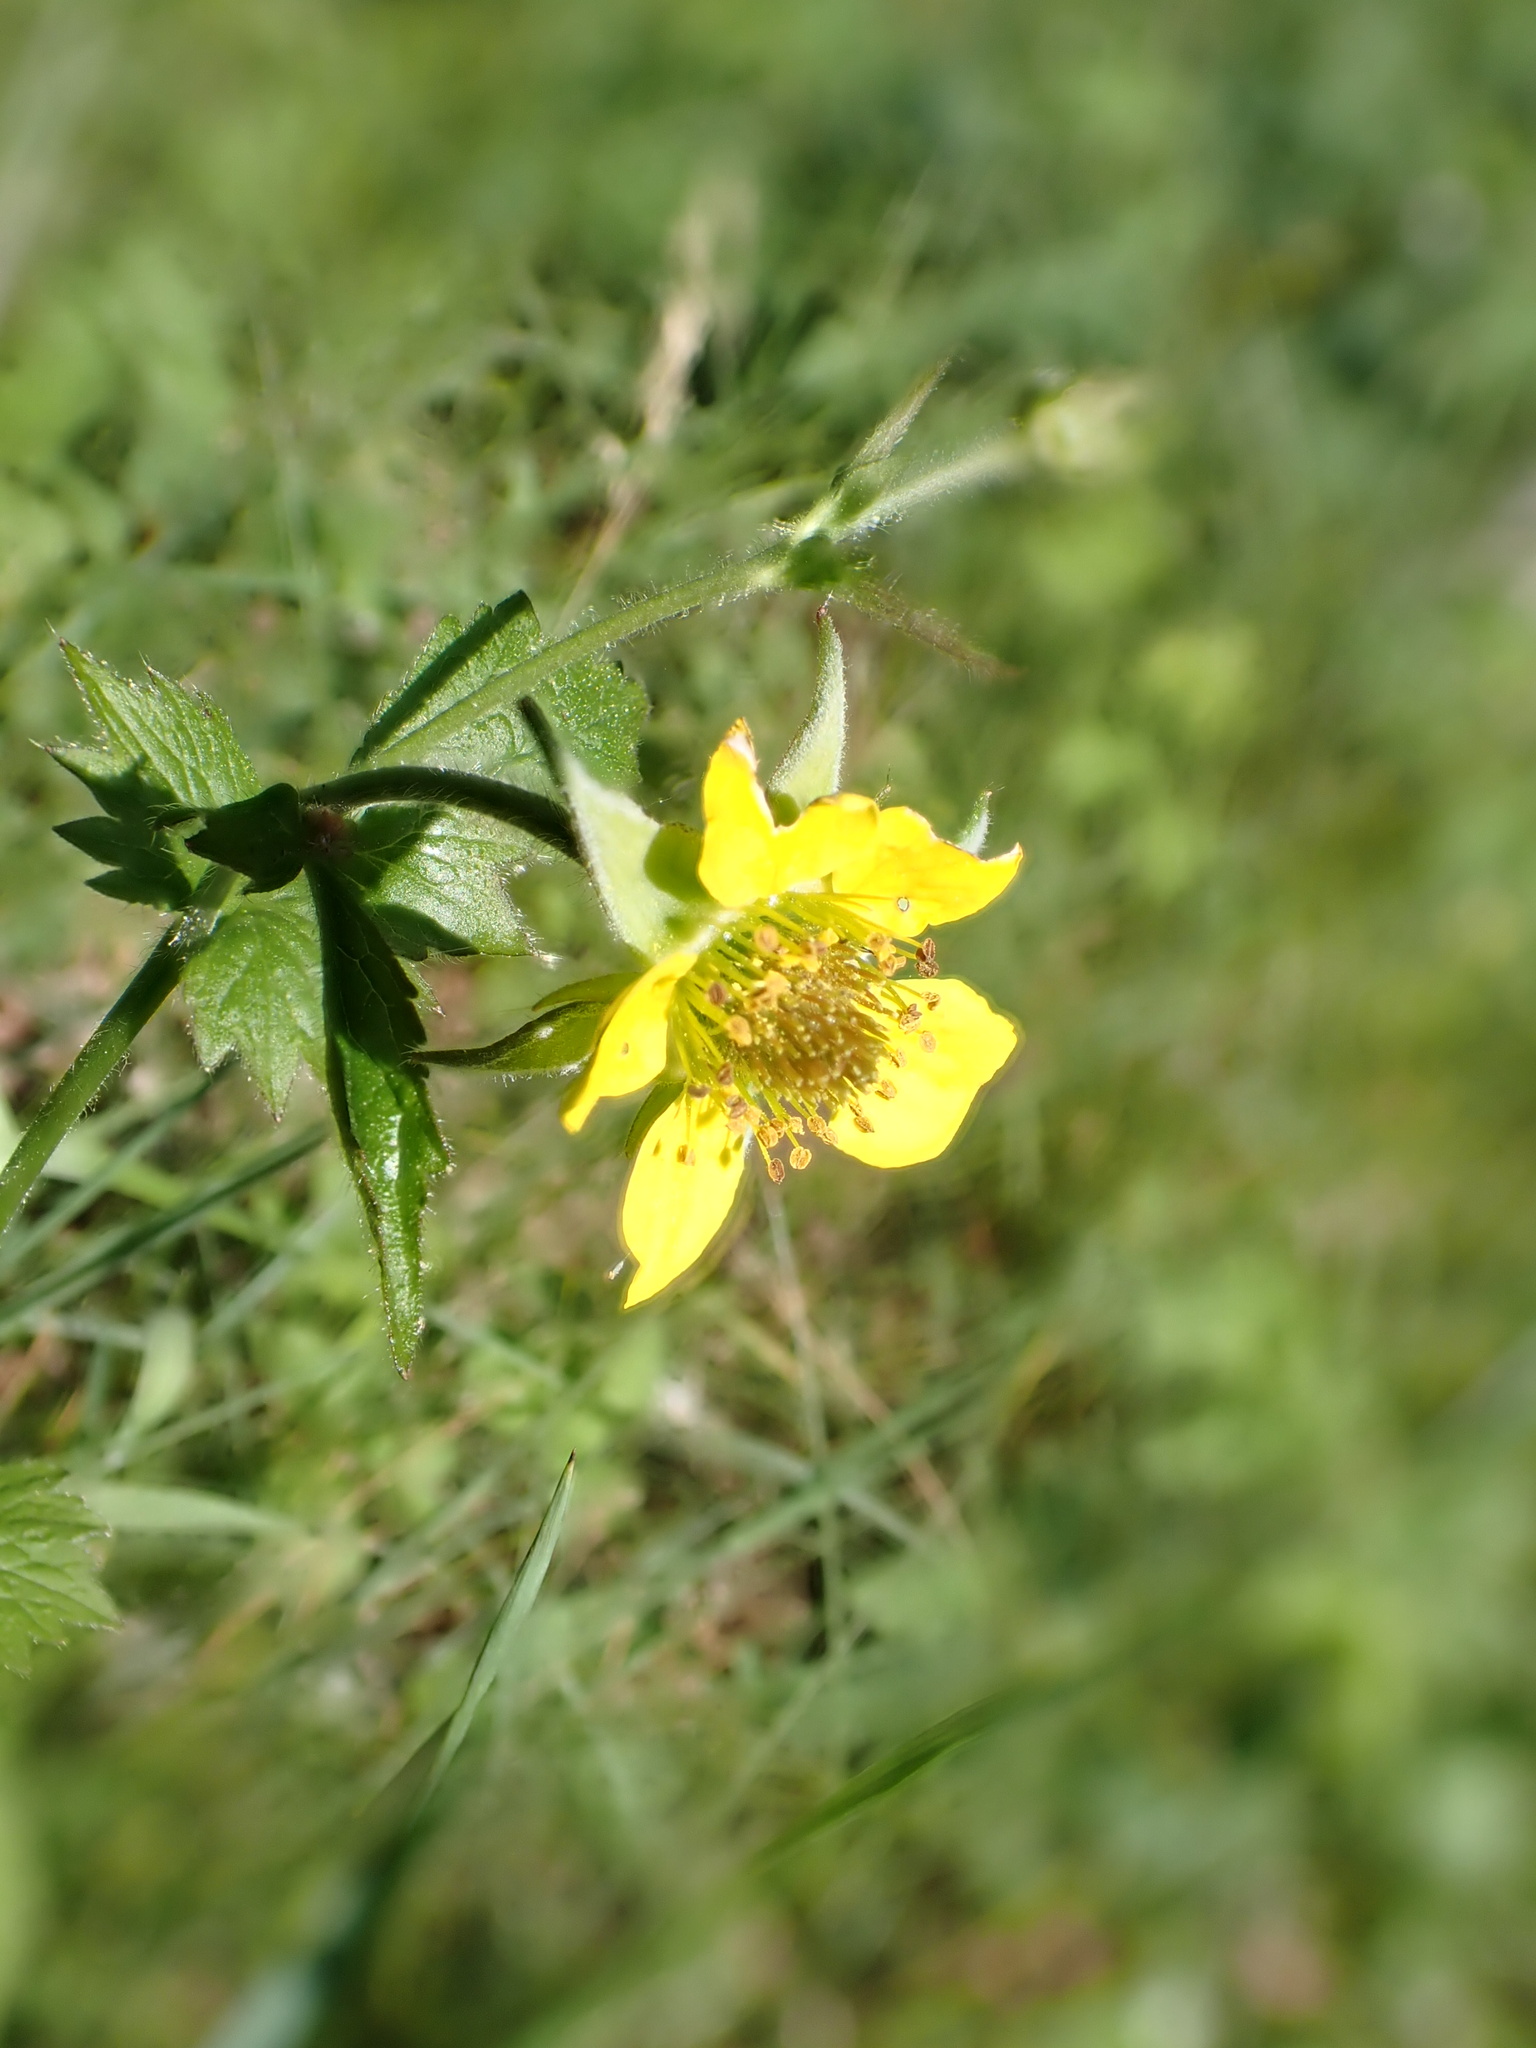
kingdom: Plantae
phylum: Tracheophyta
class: Magnoliopsida
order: Rosales
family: Rosaceae
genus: Geum
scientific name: Geum urbanum
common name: Wood avens
